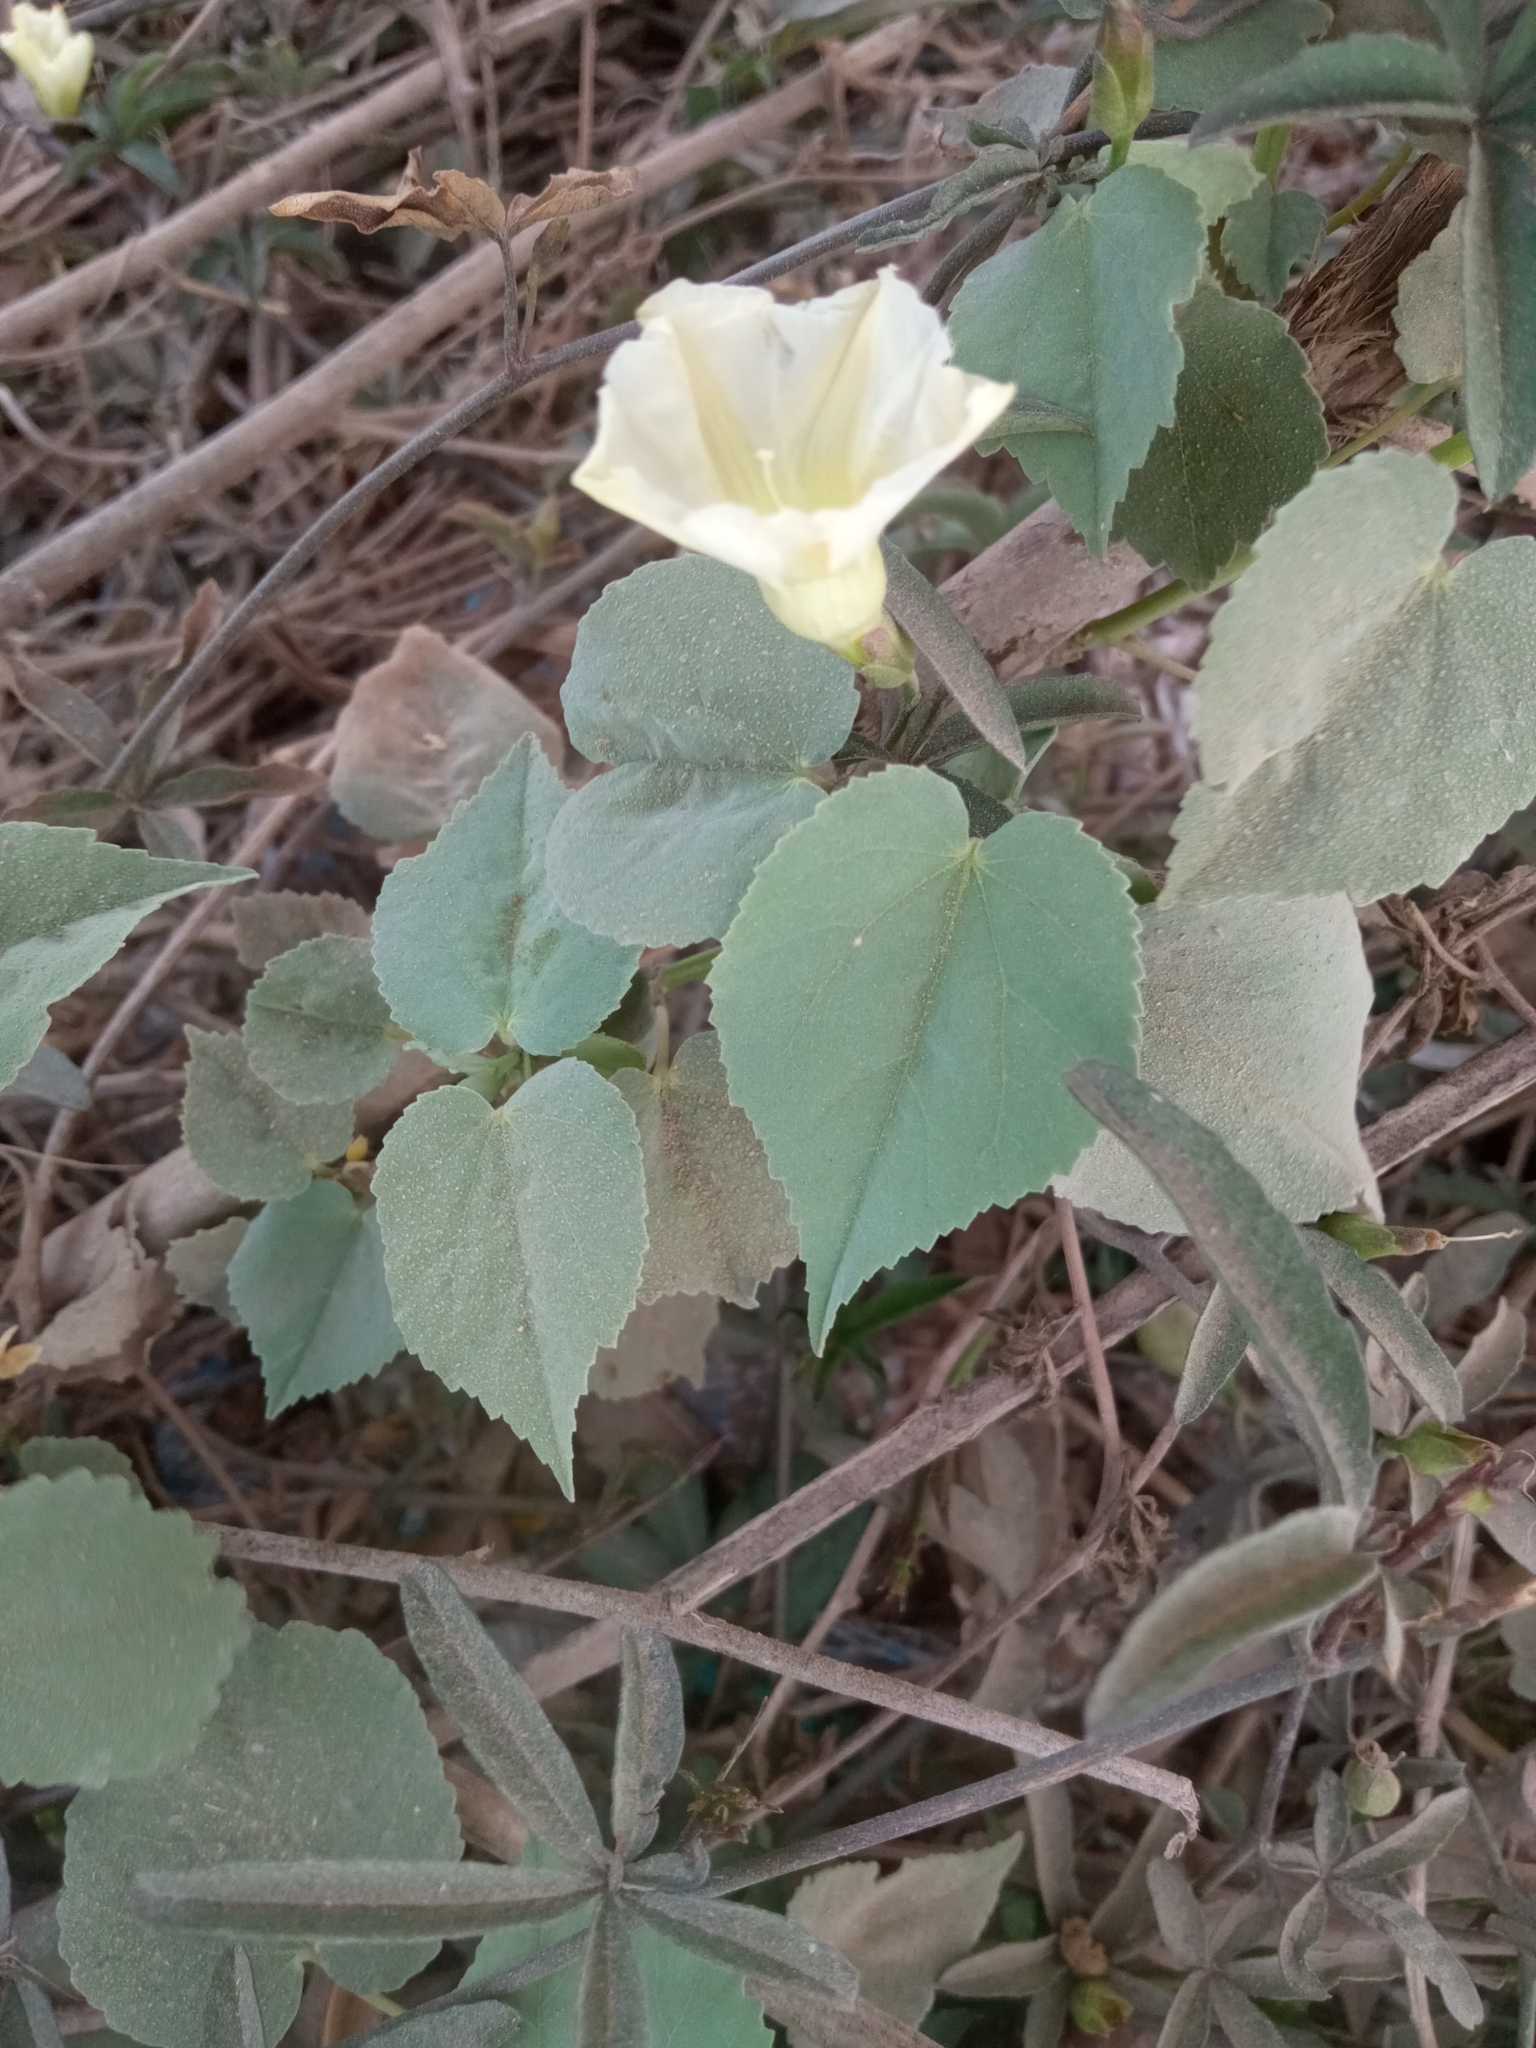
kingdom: Plantae
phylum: Tracheophyta
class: Magnoliopsida
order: Solanales
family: Convolvulaceae
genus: Distimake
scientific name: Distimake quinquefolius
